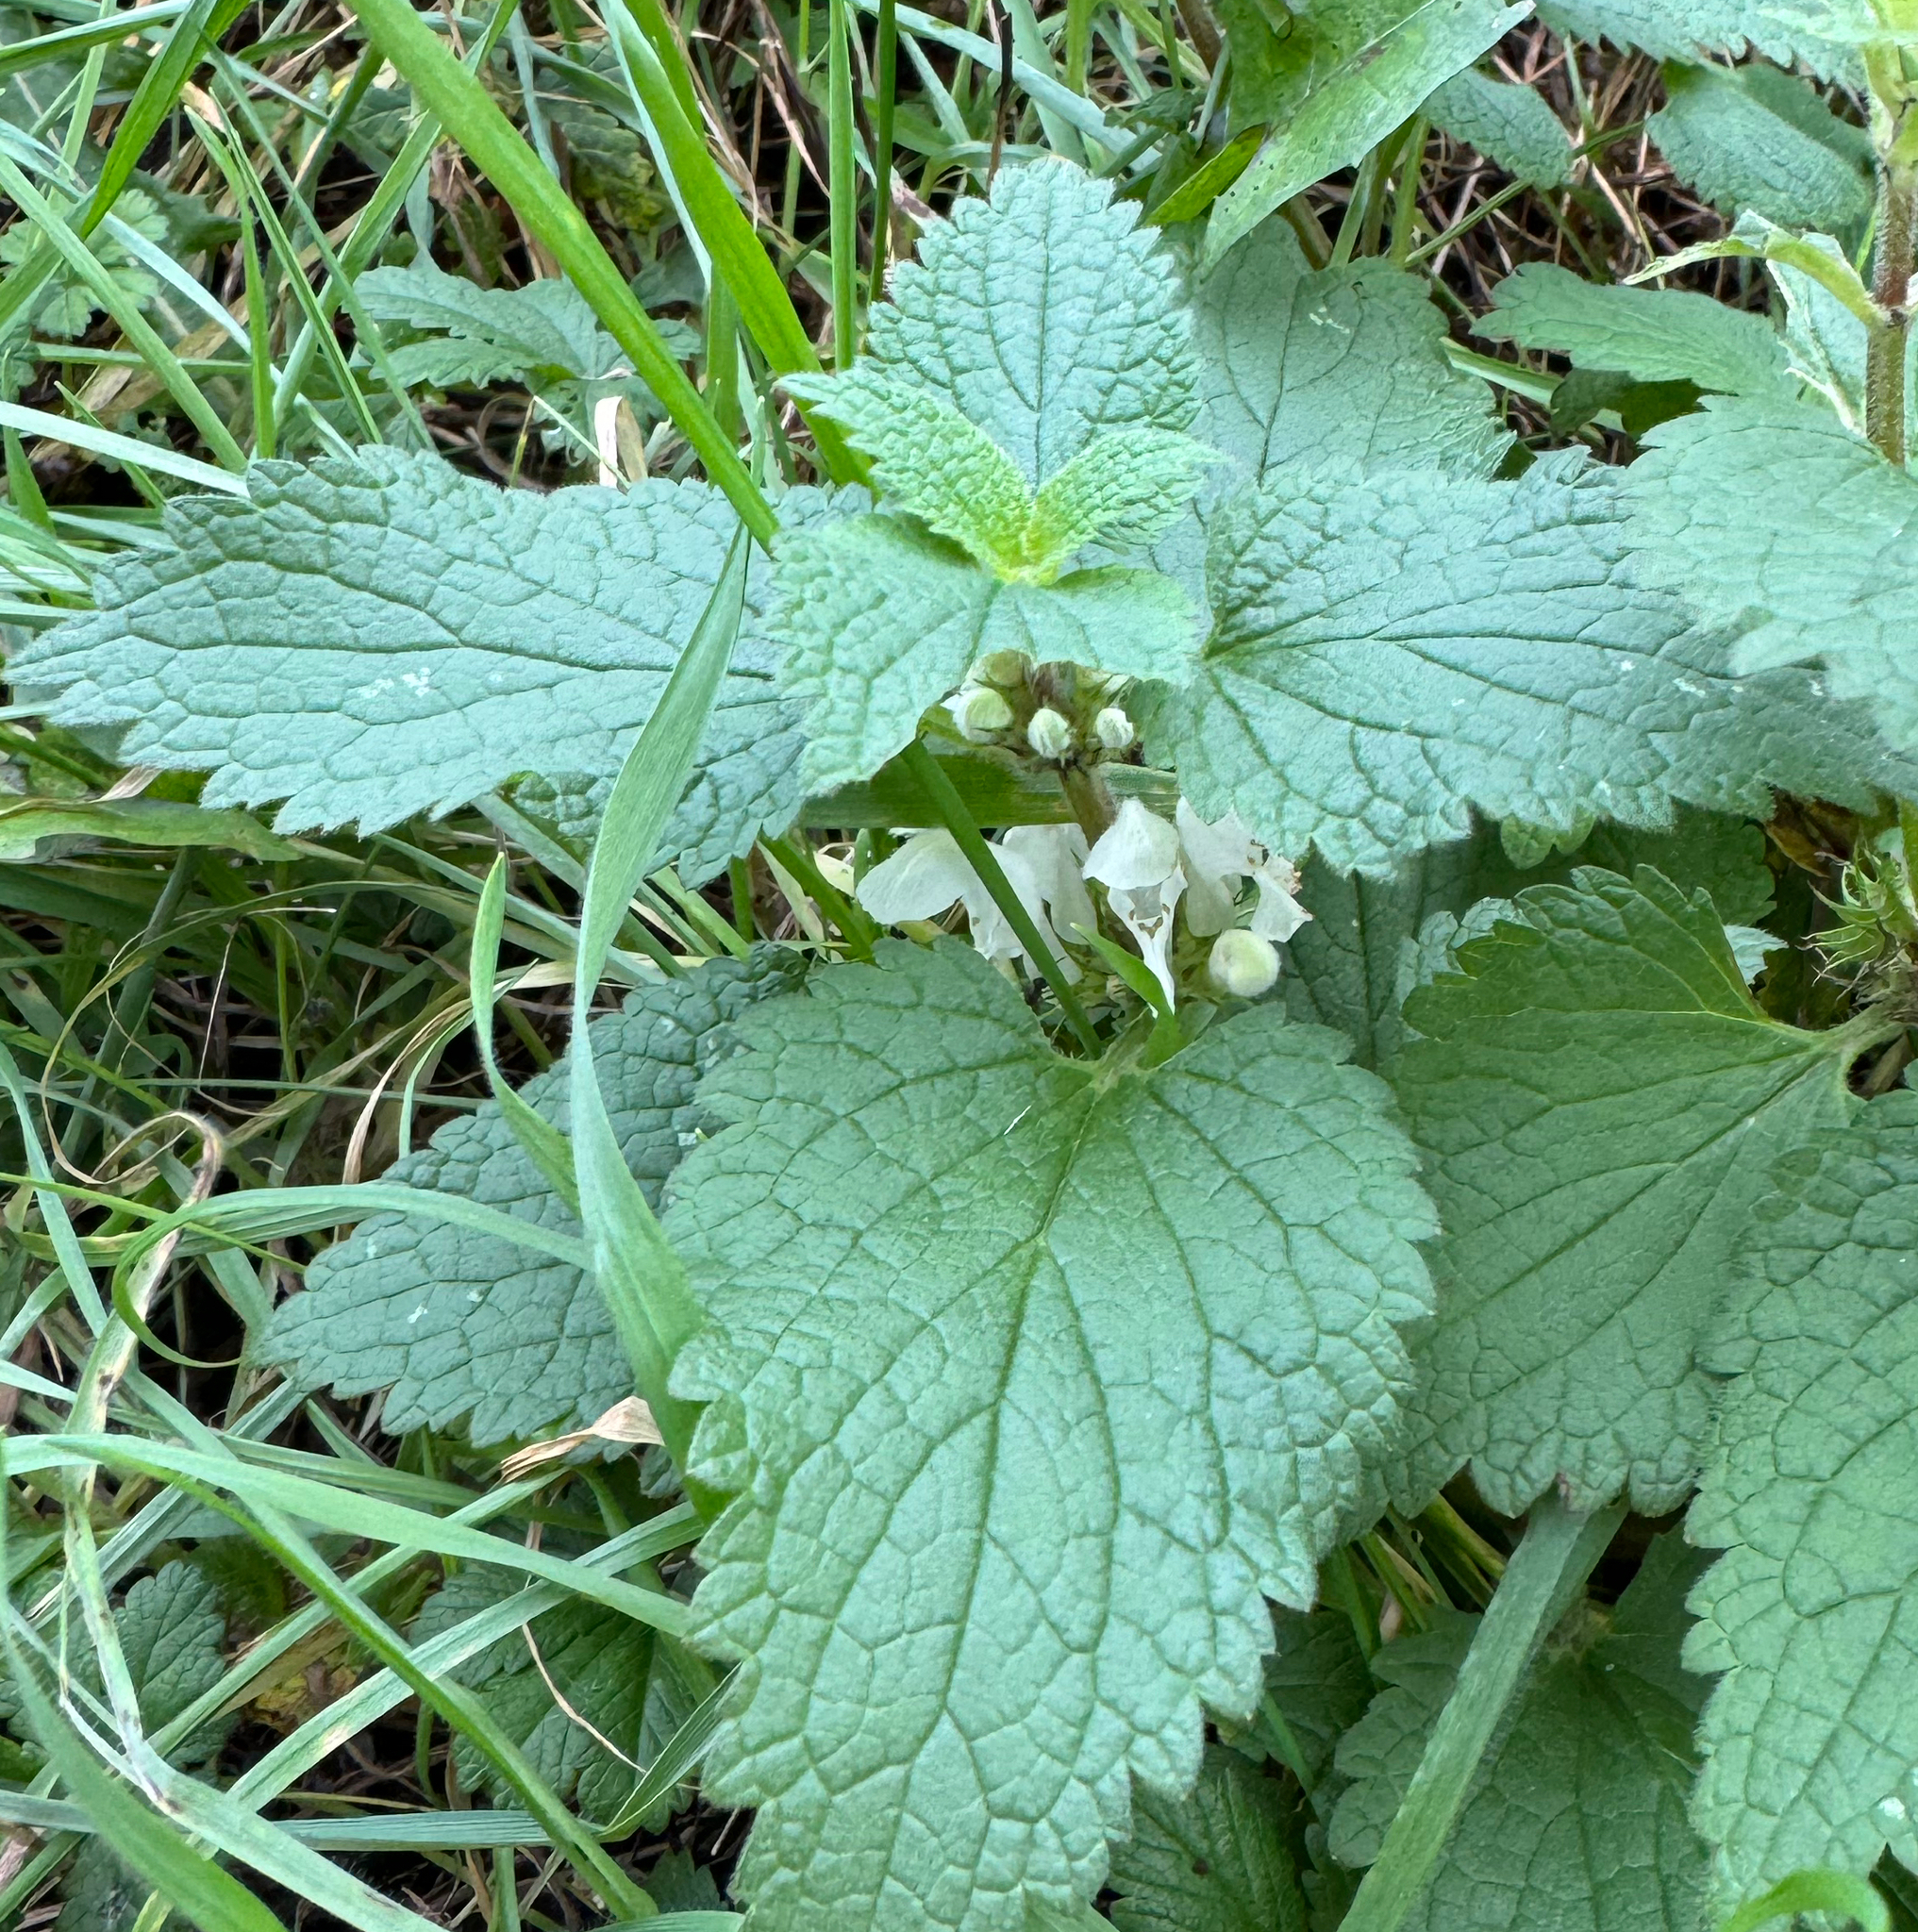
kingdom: Plantae
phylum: Tracheophyta
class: Magnoliopsida
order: Lamiales
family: Lamiaceae
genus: Lamium
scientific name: Lamium album
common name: White dead-nettle
